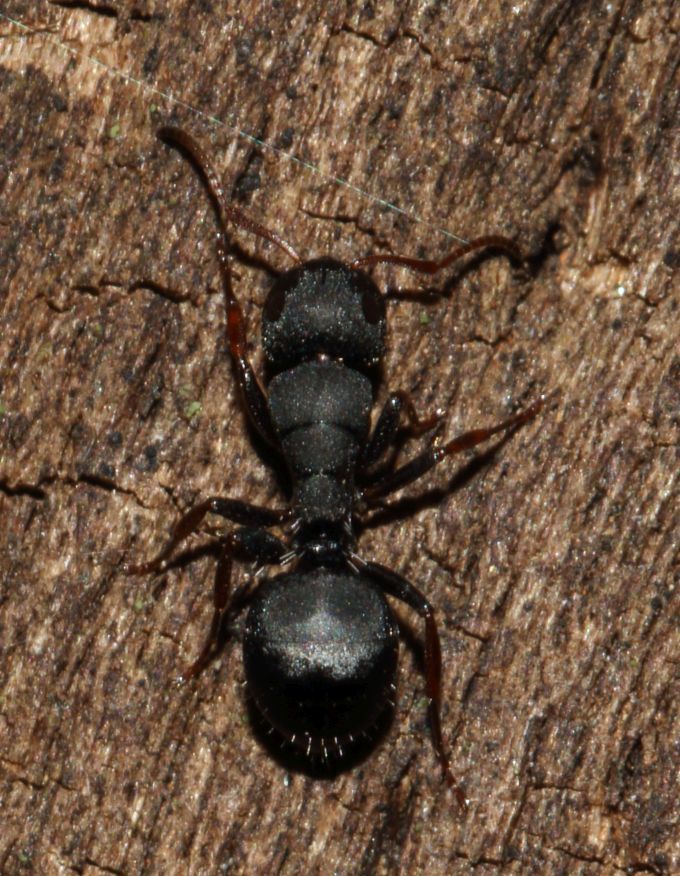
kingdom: Animalia
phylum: Arthropoda
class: Insecta
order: Hymenoptera
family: Formicidae
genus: Camponotus
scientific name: Camponotus braunsi
